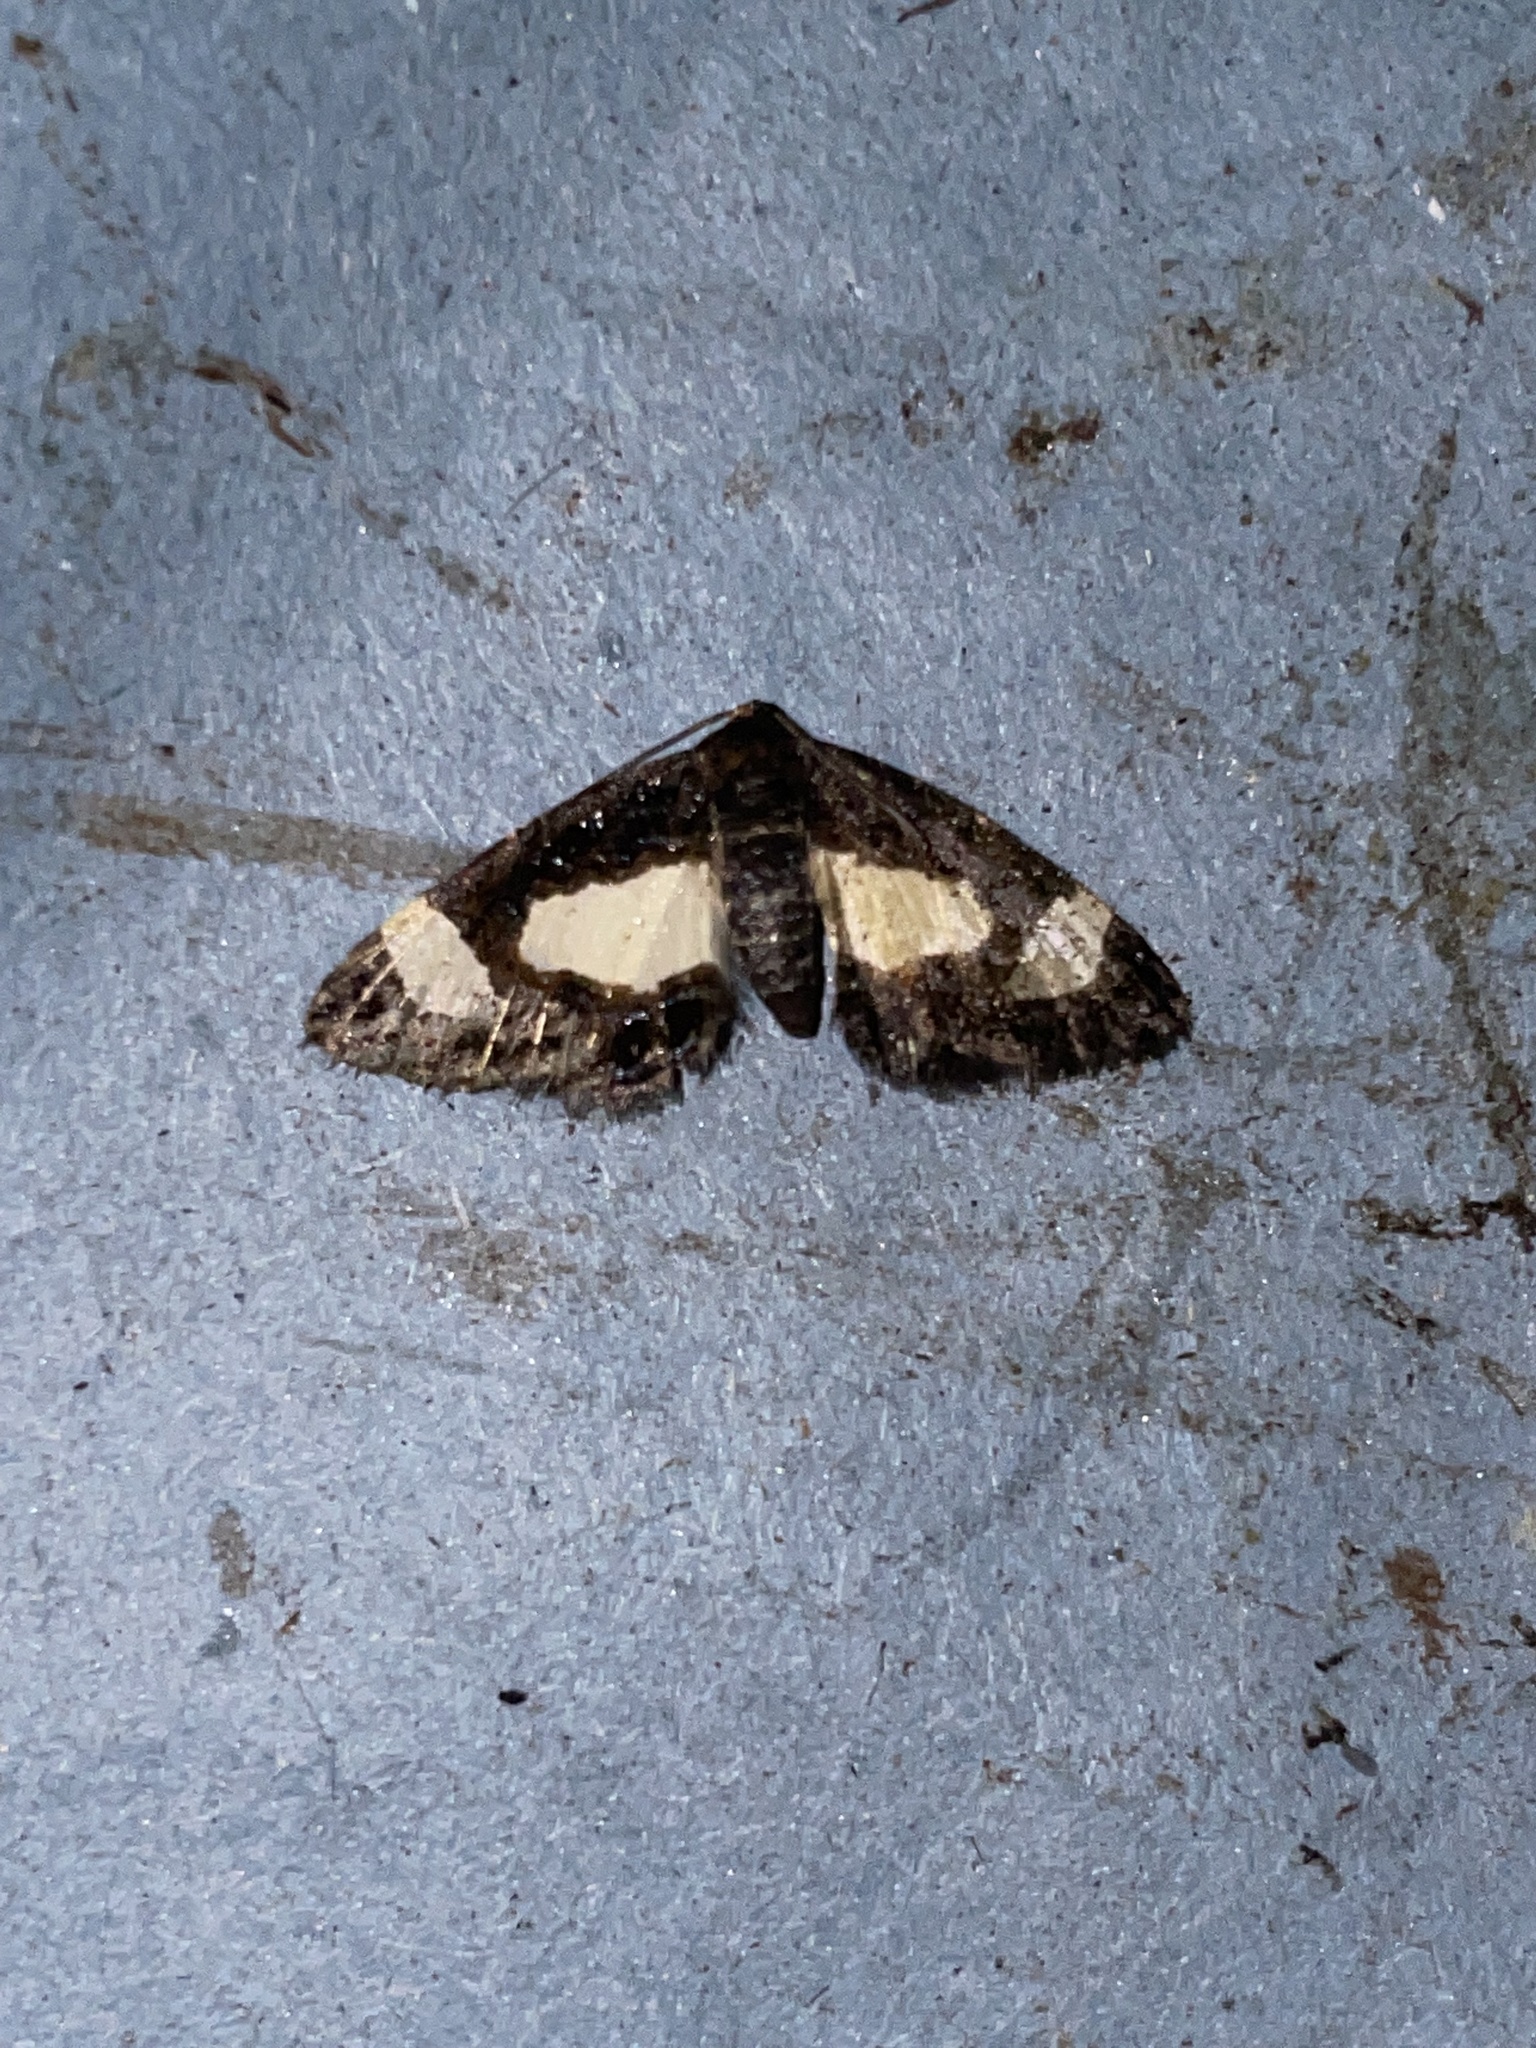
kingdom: Animalia
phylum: Arthropoda
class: Insecta
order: Lepidoptera
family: Geometridae
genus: Heliomata
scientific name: Heliomata cycladata
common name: Common spring moth
